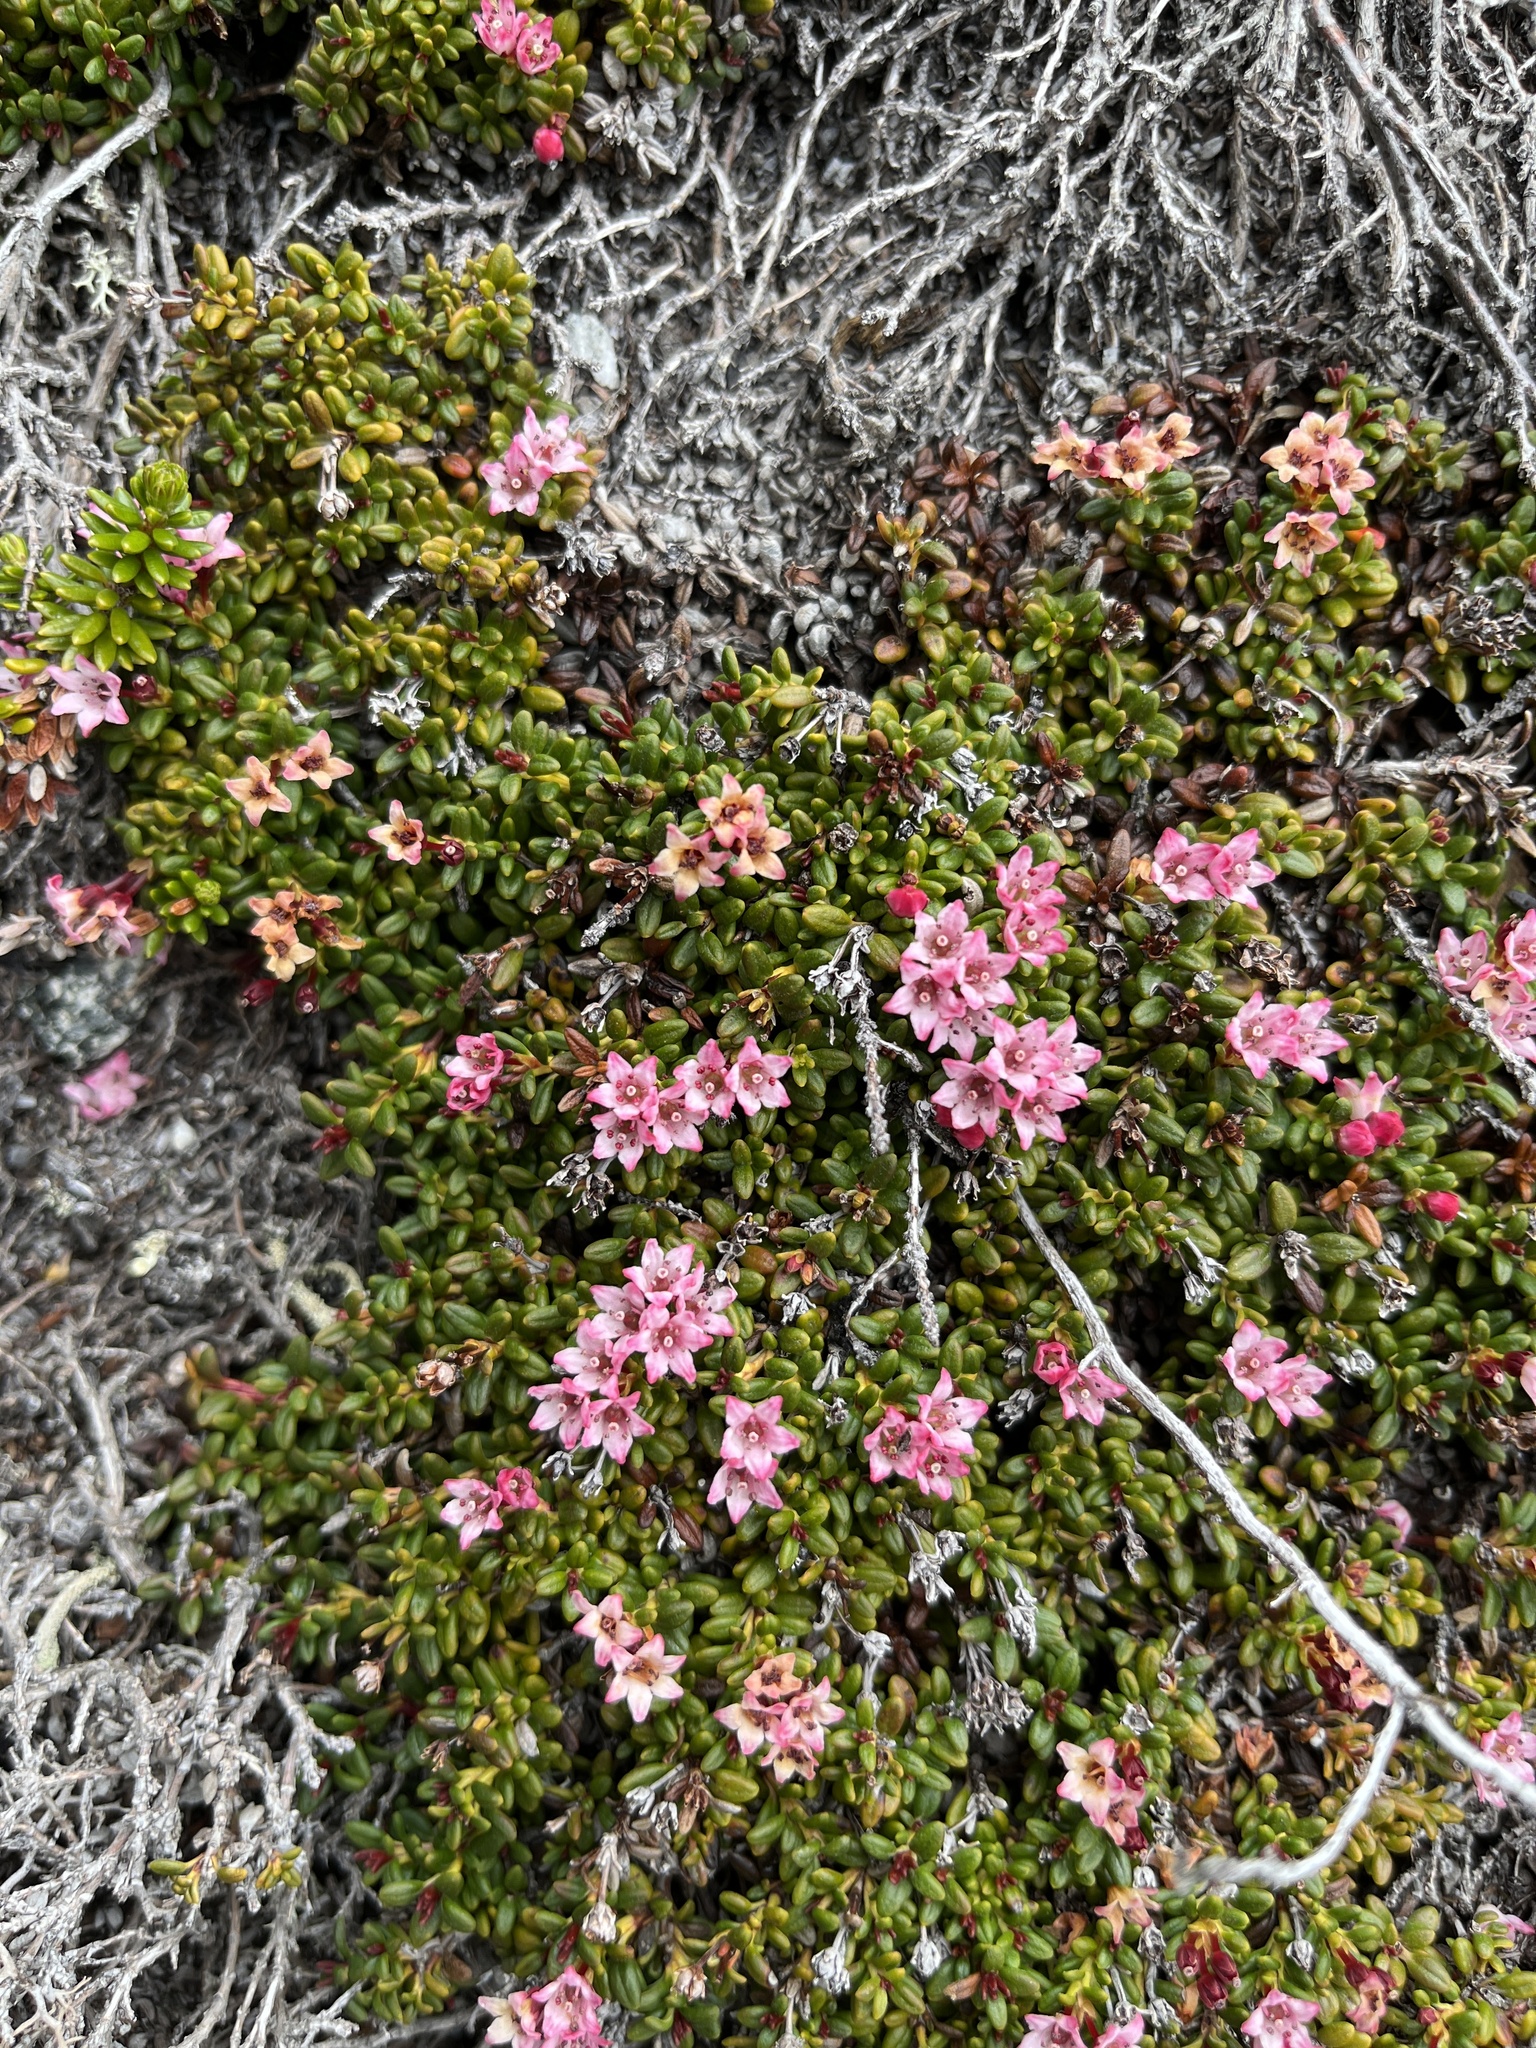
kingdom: Plantae
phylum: Tracheophyta
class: Magnoliopsida
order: Ericales
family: Ericaceae
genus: Kalmia
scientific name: Kalmia procumbens
